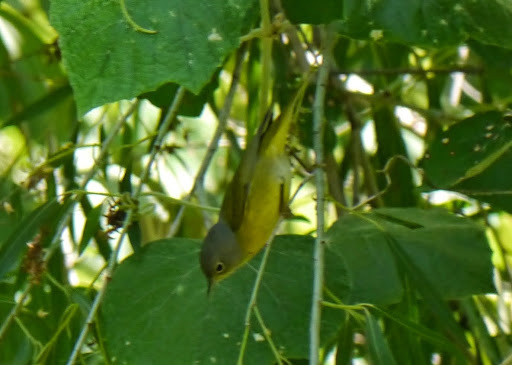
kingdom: Animalia
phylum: Chordata
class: Aves
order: Passeriformes
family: Parulidae
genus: Leiothlypis
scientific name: Leiothlypis ruficapilla
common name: Nashville warbler
